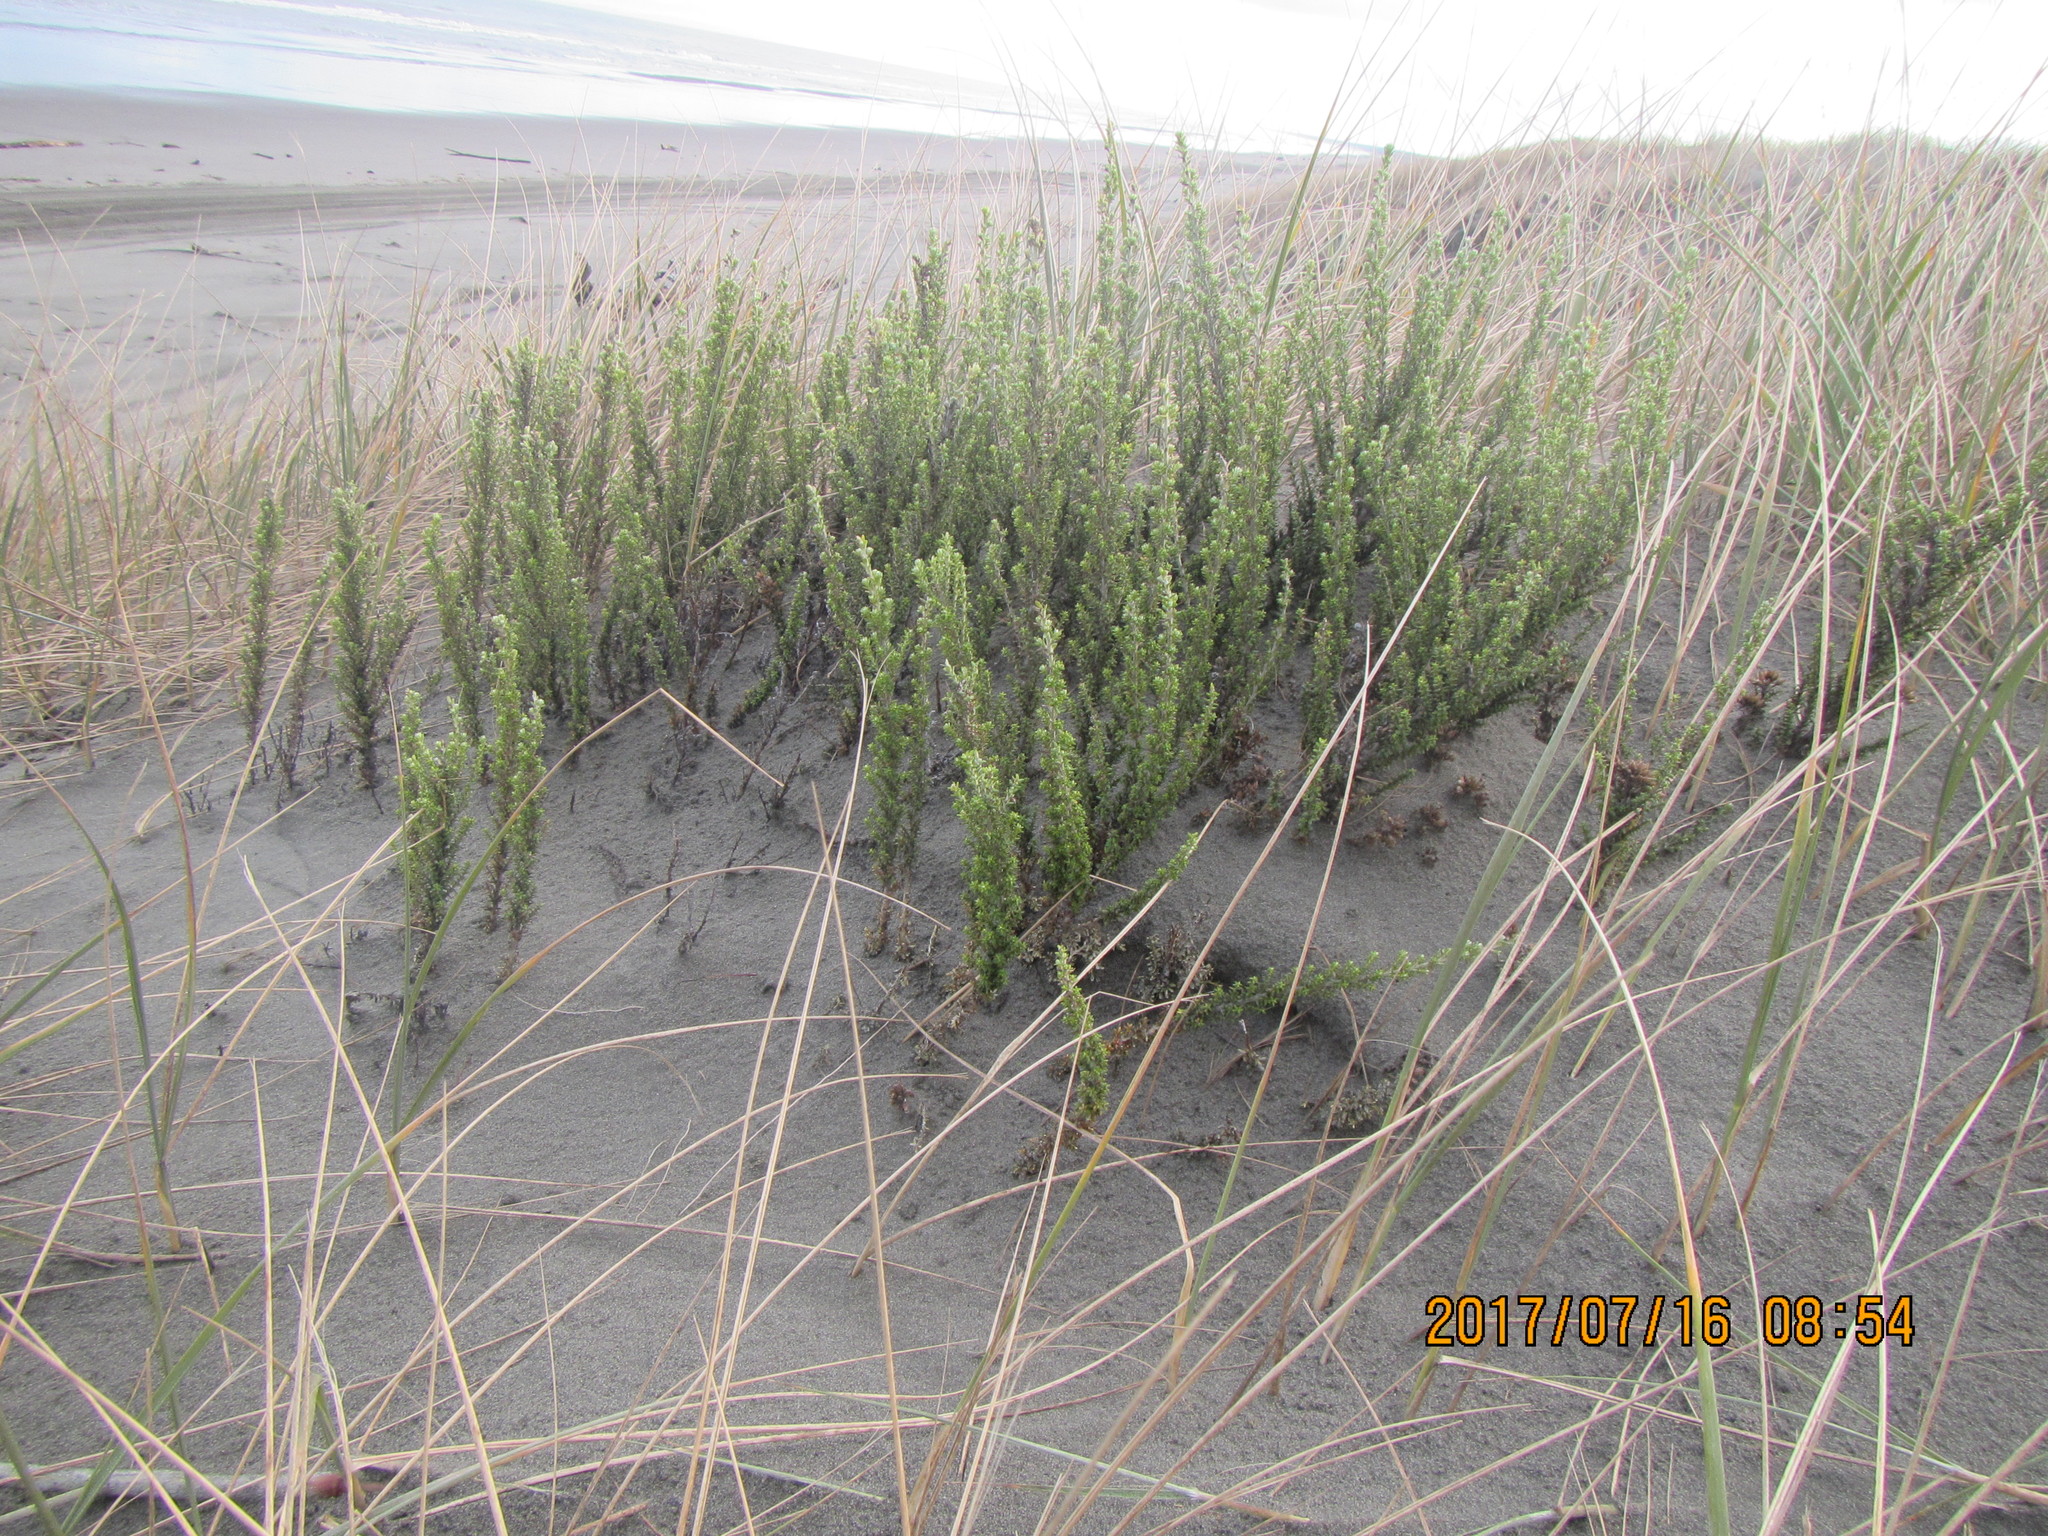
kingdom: Plantae
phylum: Tracheophyta
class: Magnoliopsida
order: Asterales
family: Asteraceae
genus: Ozothamnus
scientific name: Ozothamnus leptophyllus
